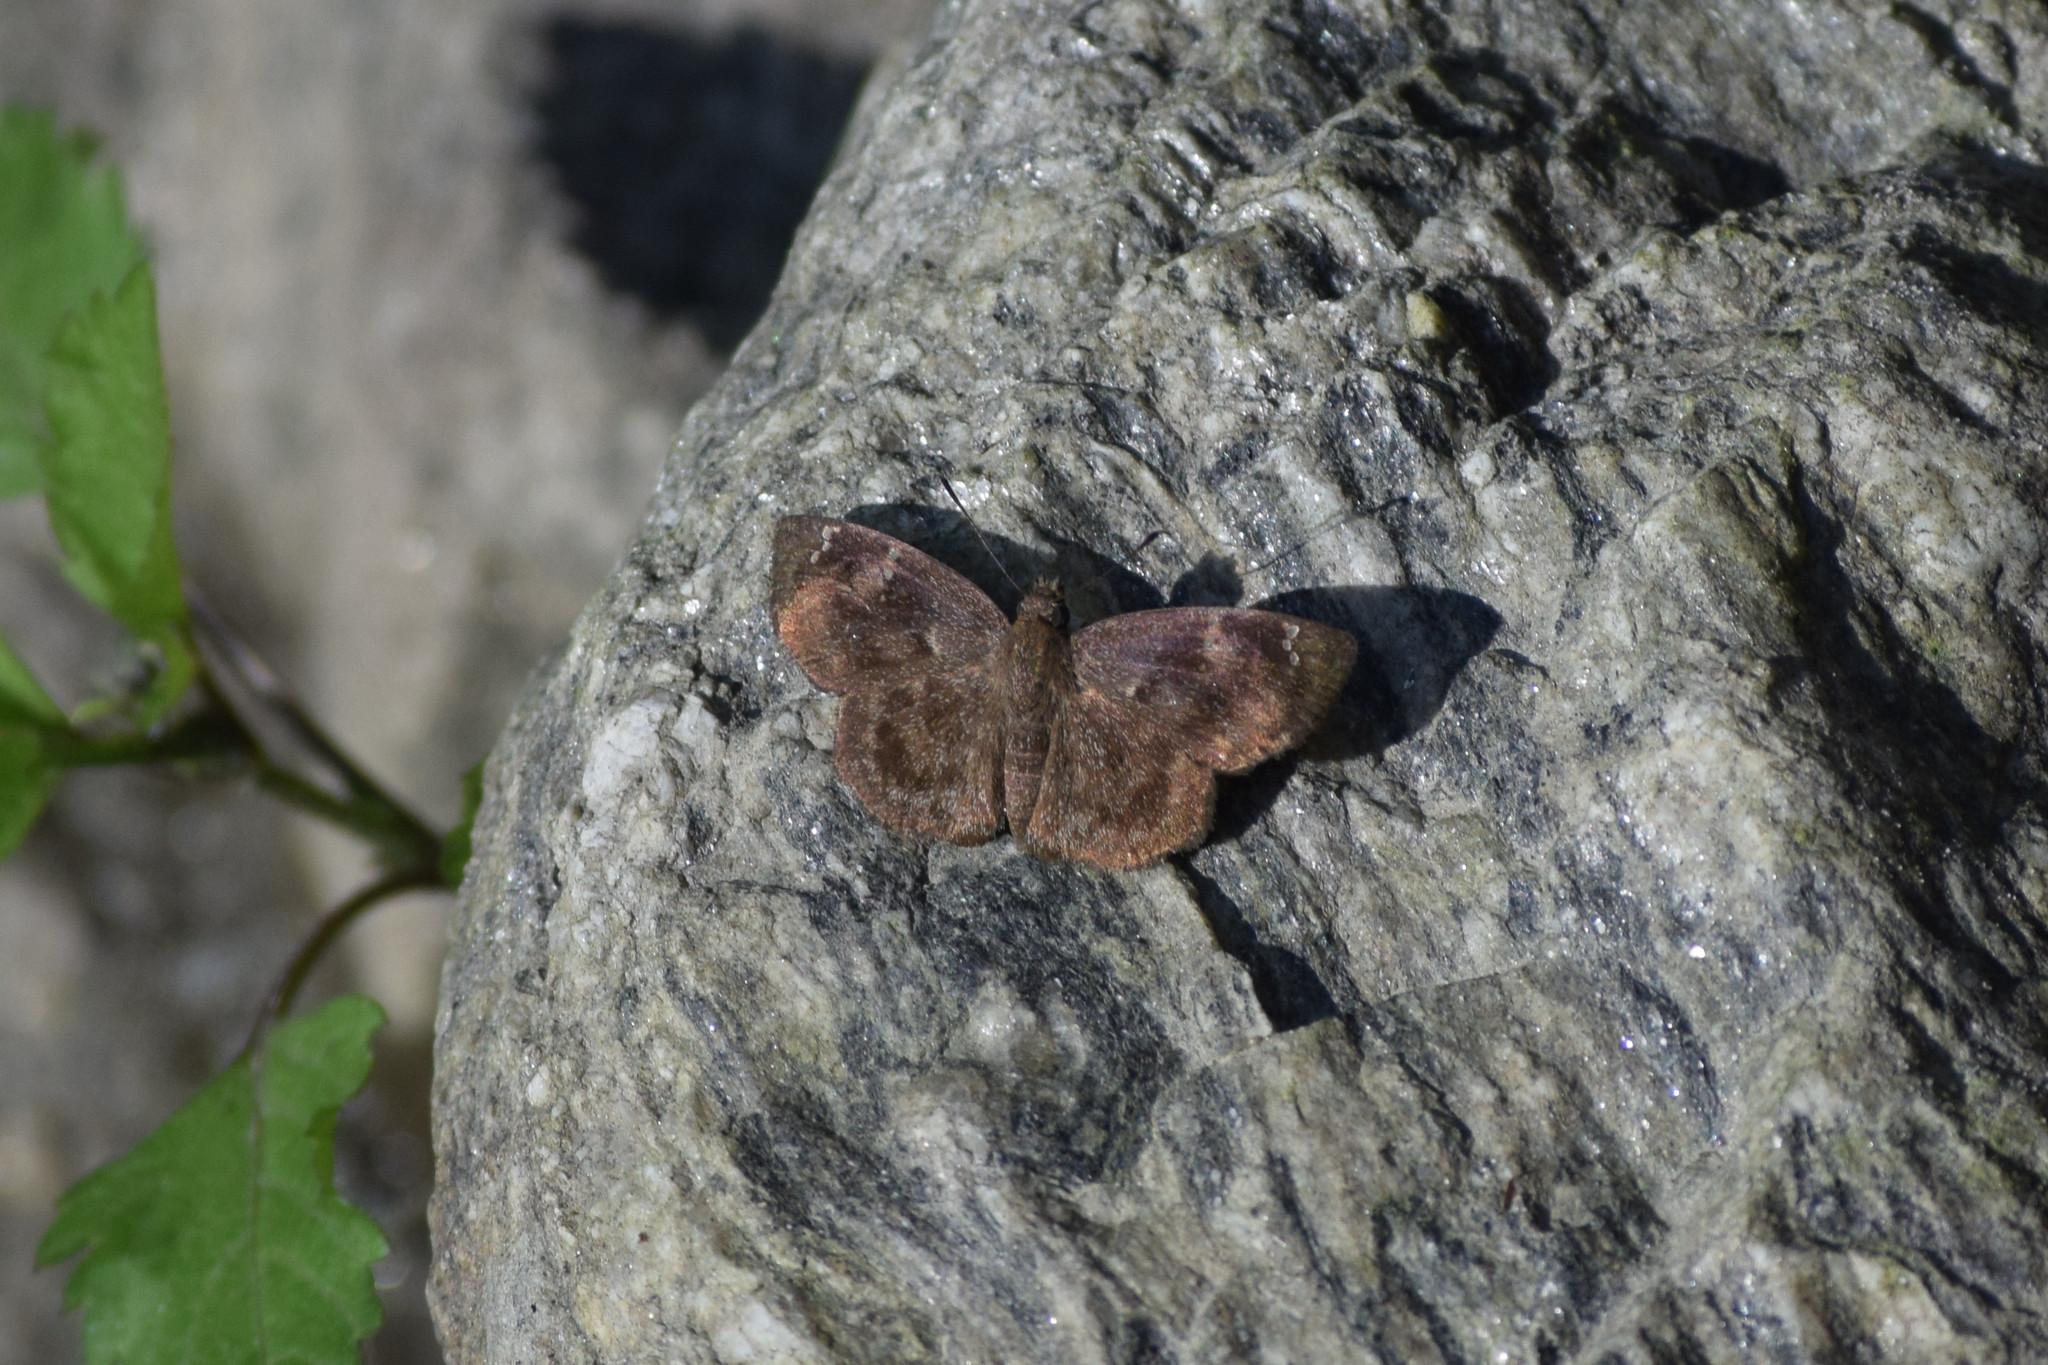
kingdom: Animalia
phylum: Arthropoda
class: Insecta
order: Lepidoptera
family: Hesperiidae
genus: Sarangesa
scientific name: Sarangesa dasahara
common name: Common small flat
